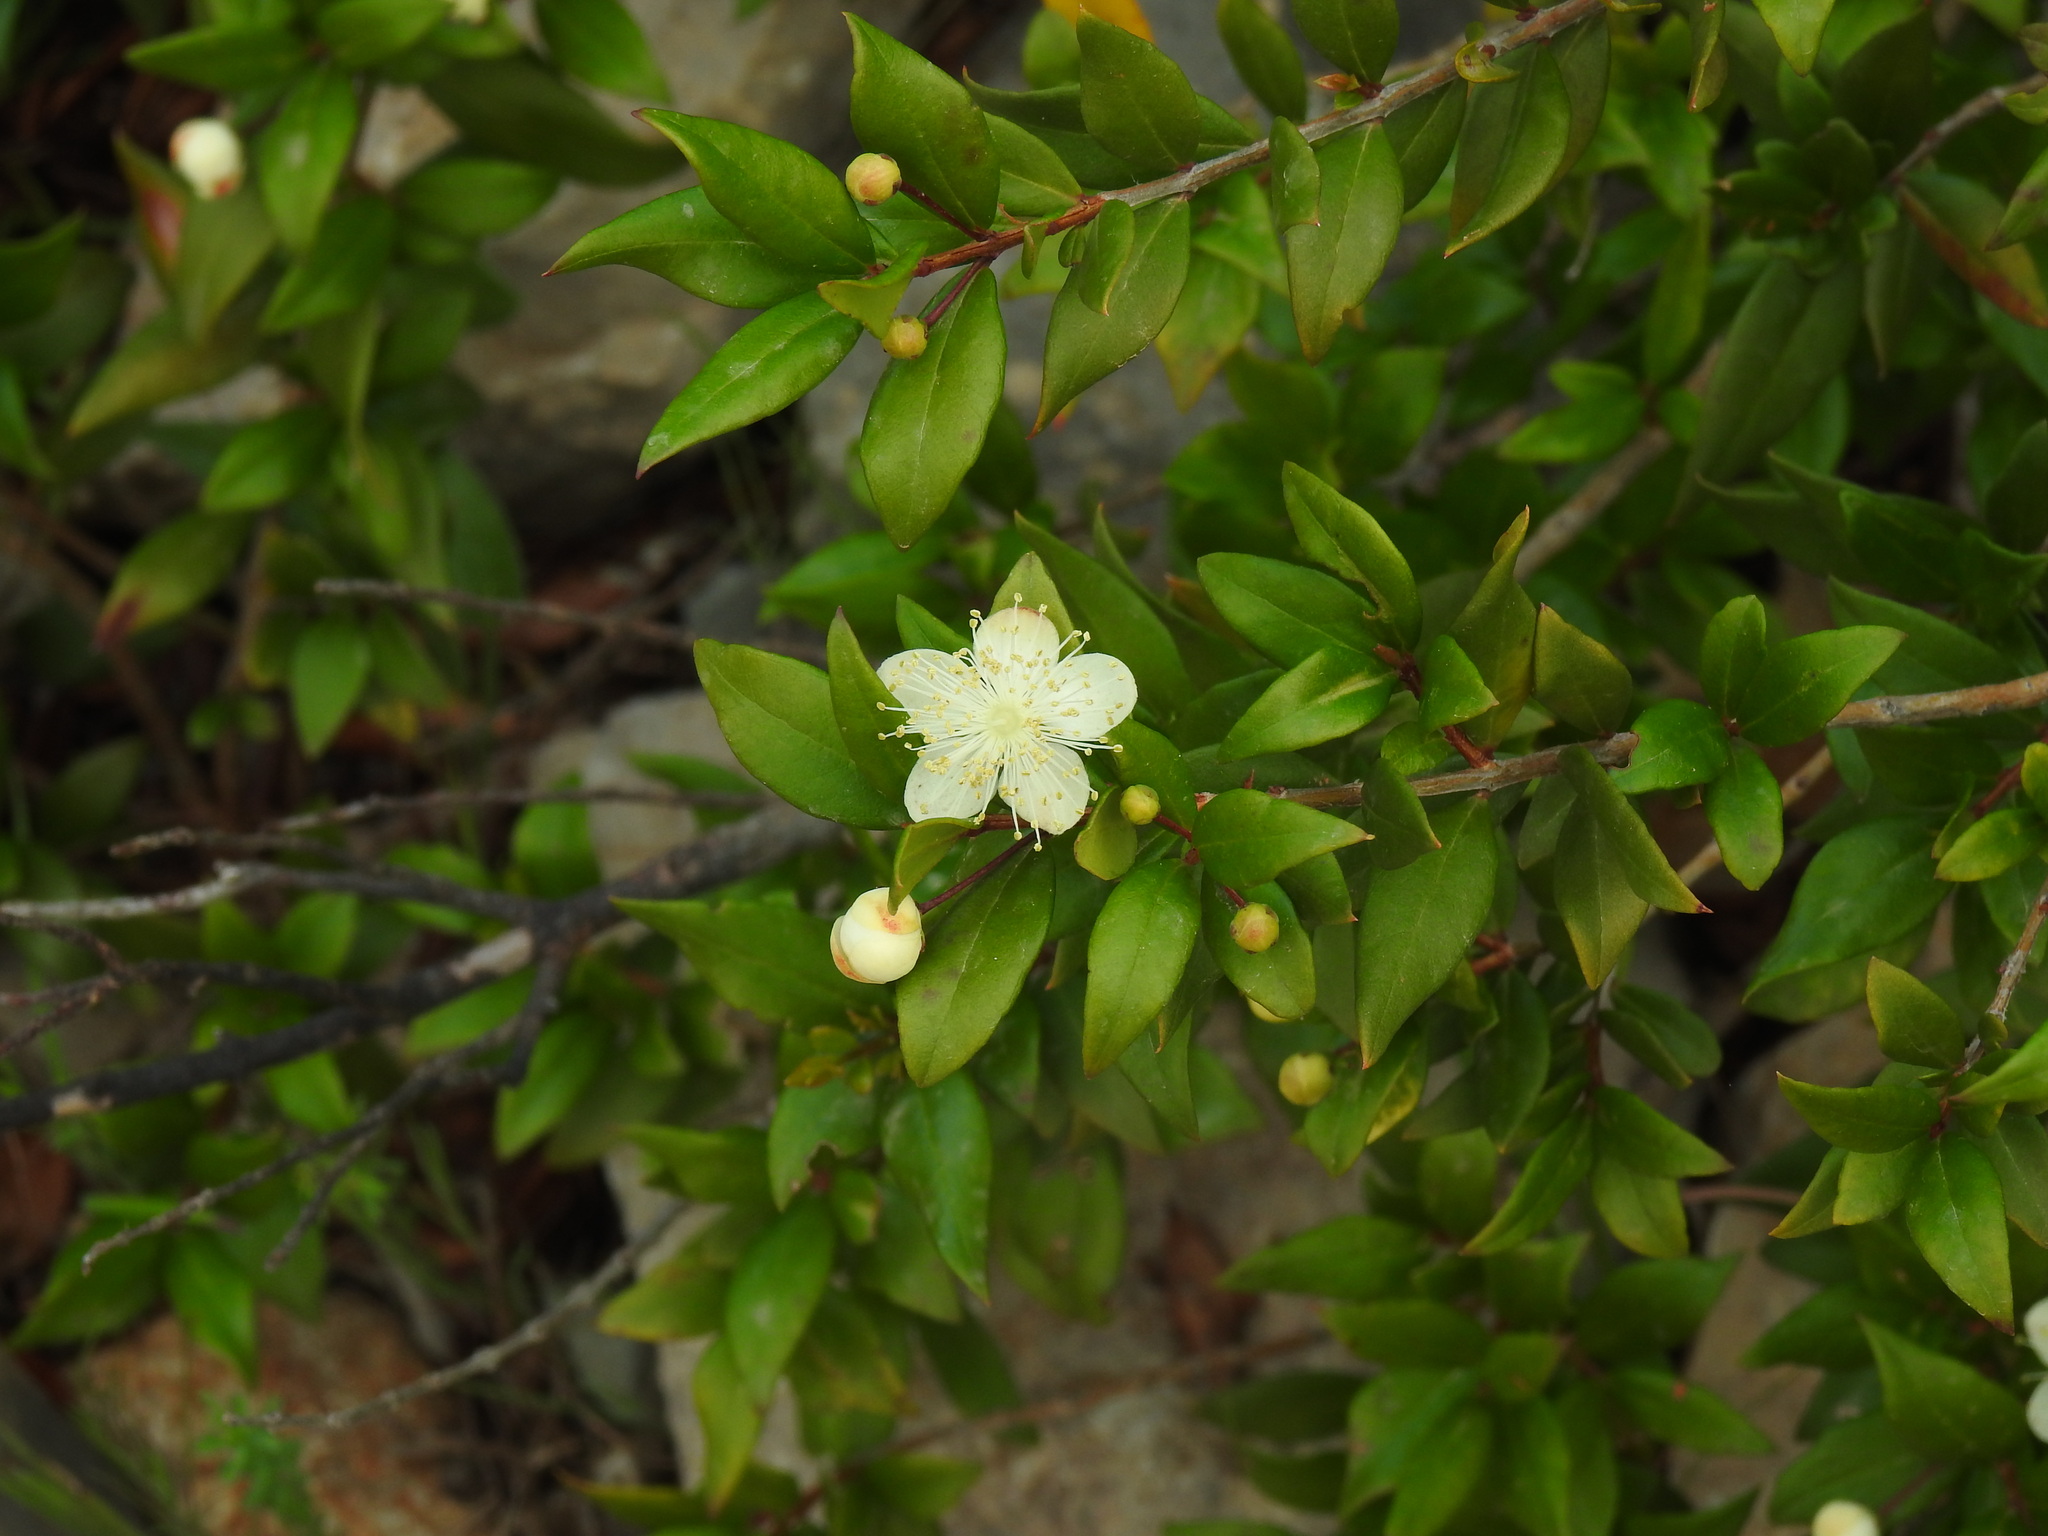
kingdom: Plantae
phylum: Tracheophyta
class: Magnoliopsida
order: Myrtales
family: Myrtaceae
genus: Myrtus
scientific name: Myrtus communis
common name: Myrtle
